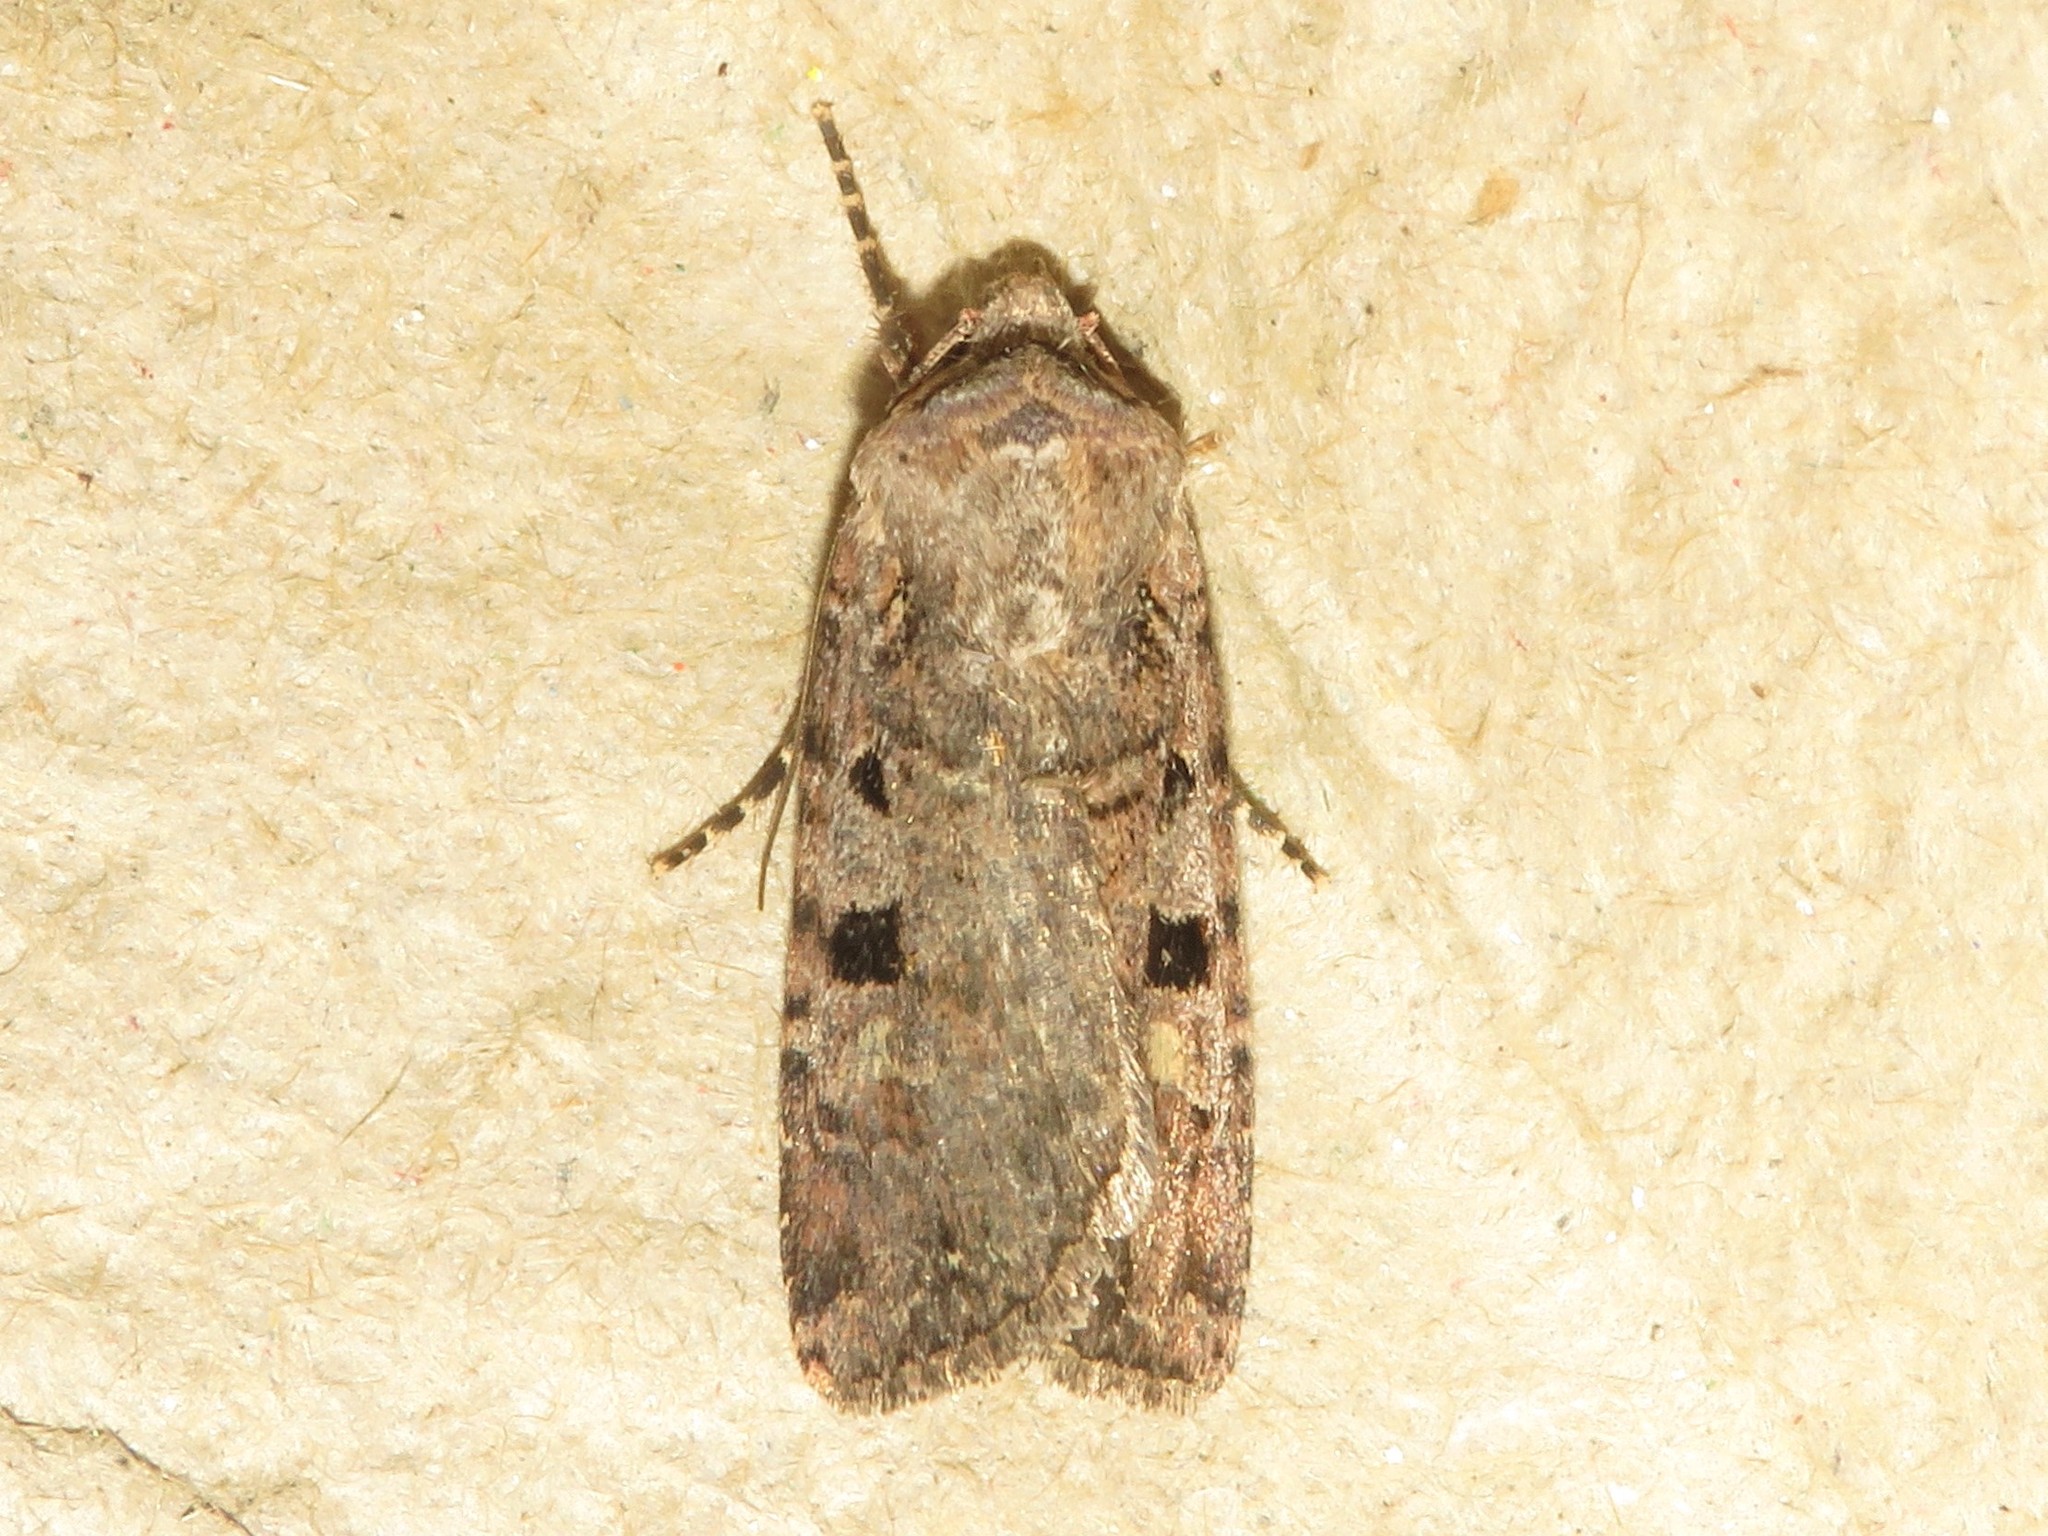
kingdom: Animalia
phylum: Arthropoda
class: Insecta
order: Lepidoptera
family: Noctuidae
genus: Euxoa
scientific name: Euxoa tessellata
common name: Striped cutworm
